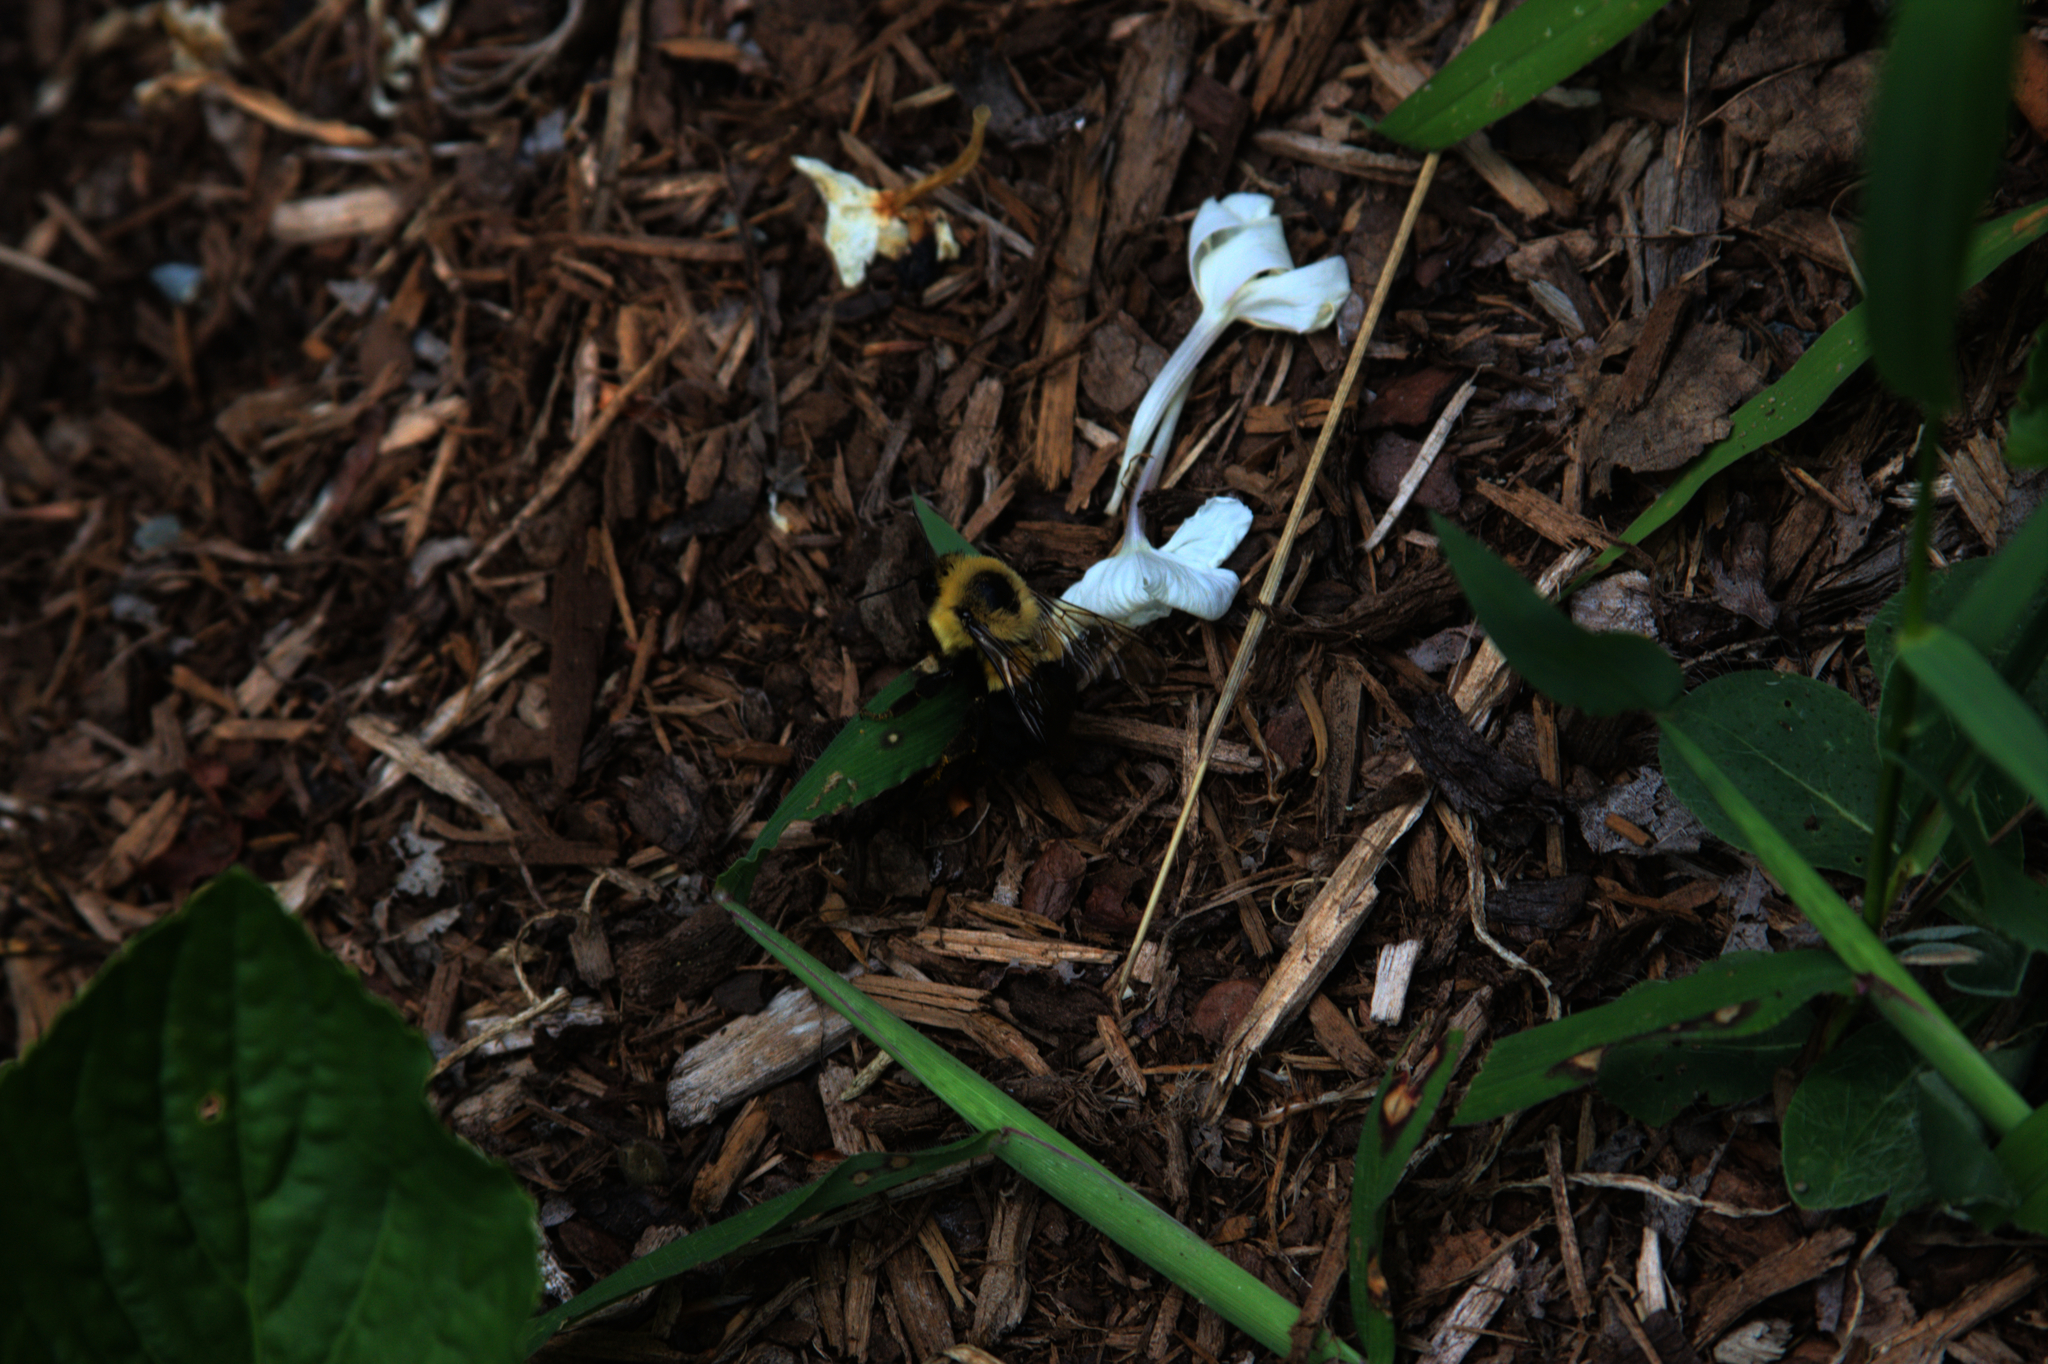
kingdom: Animalia
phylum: Arthropoda
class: Insecta
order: Hymenoptera
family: Apidae
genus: Bombus
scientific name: Bombus impatiens
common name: Common eastern bumble bee
